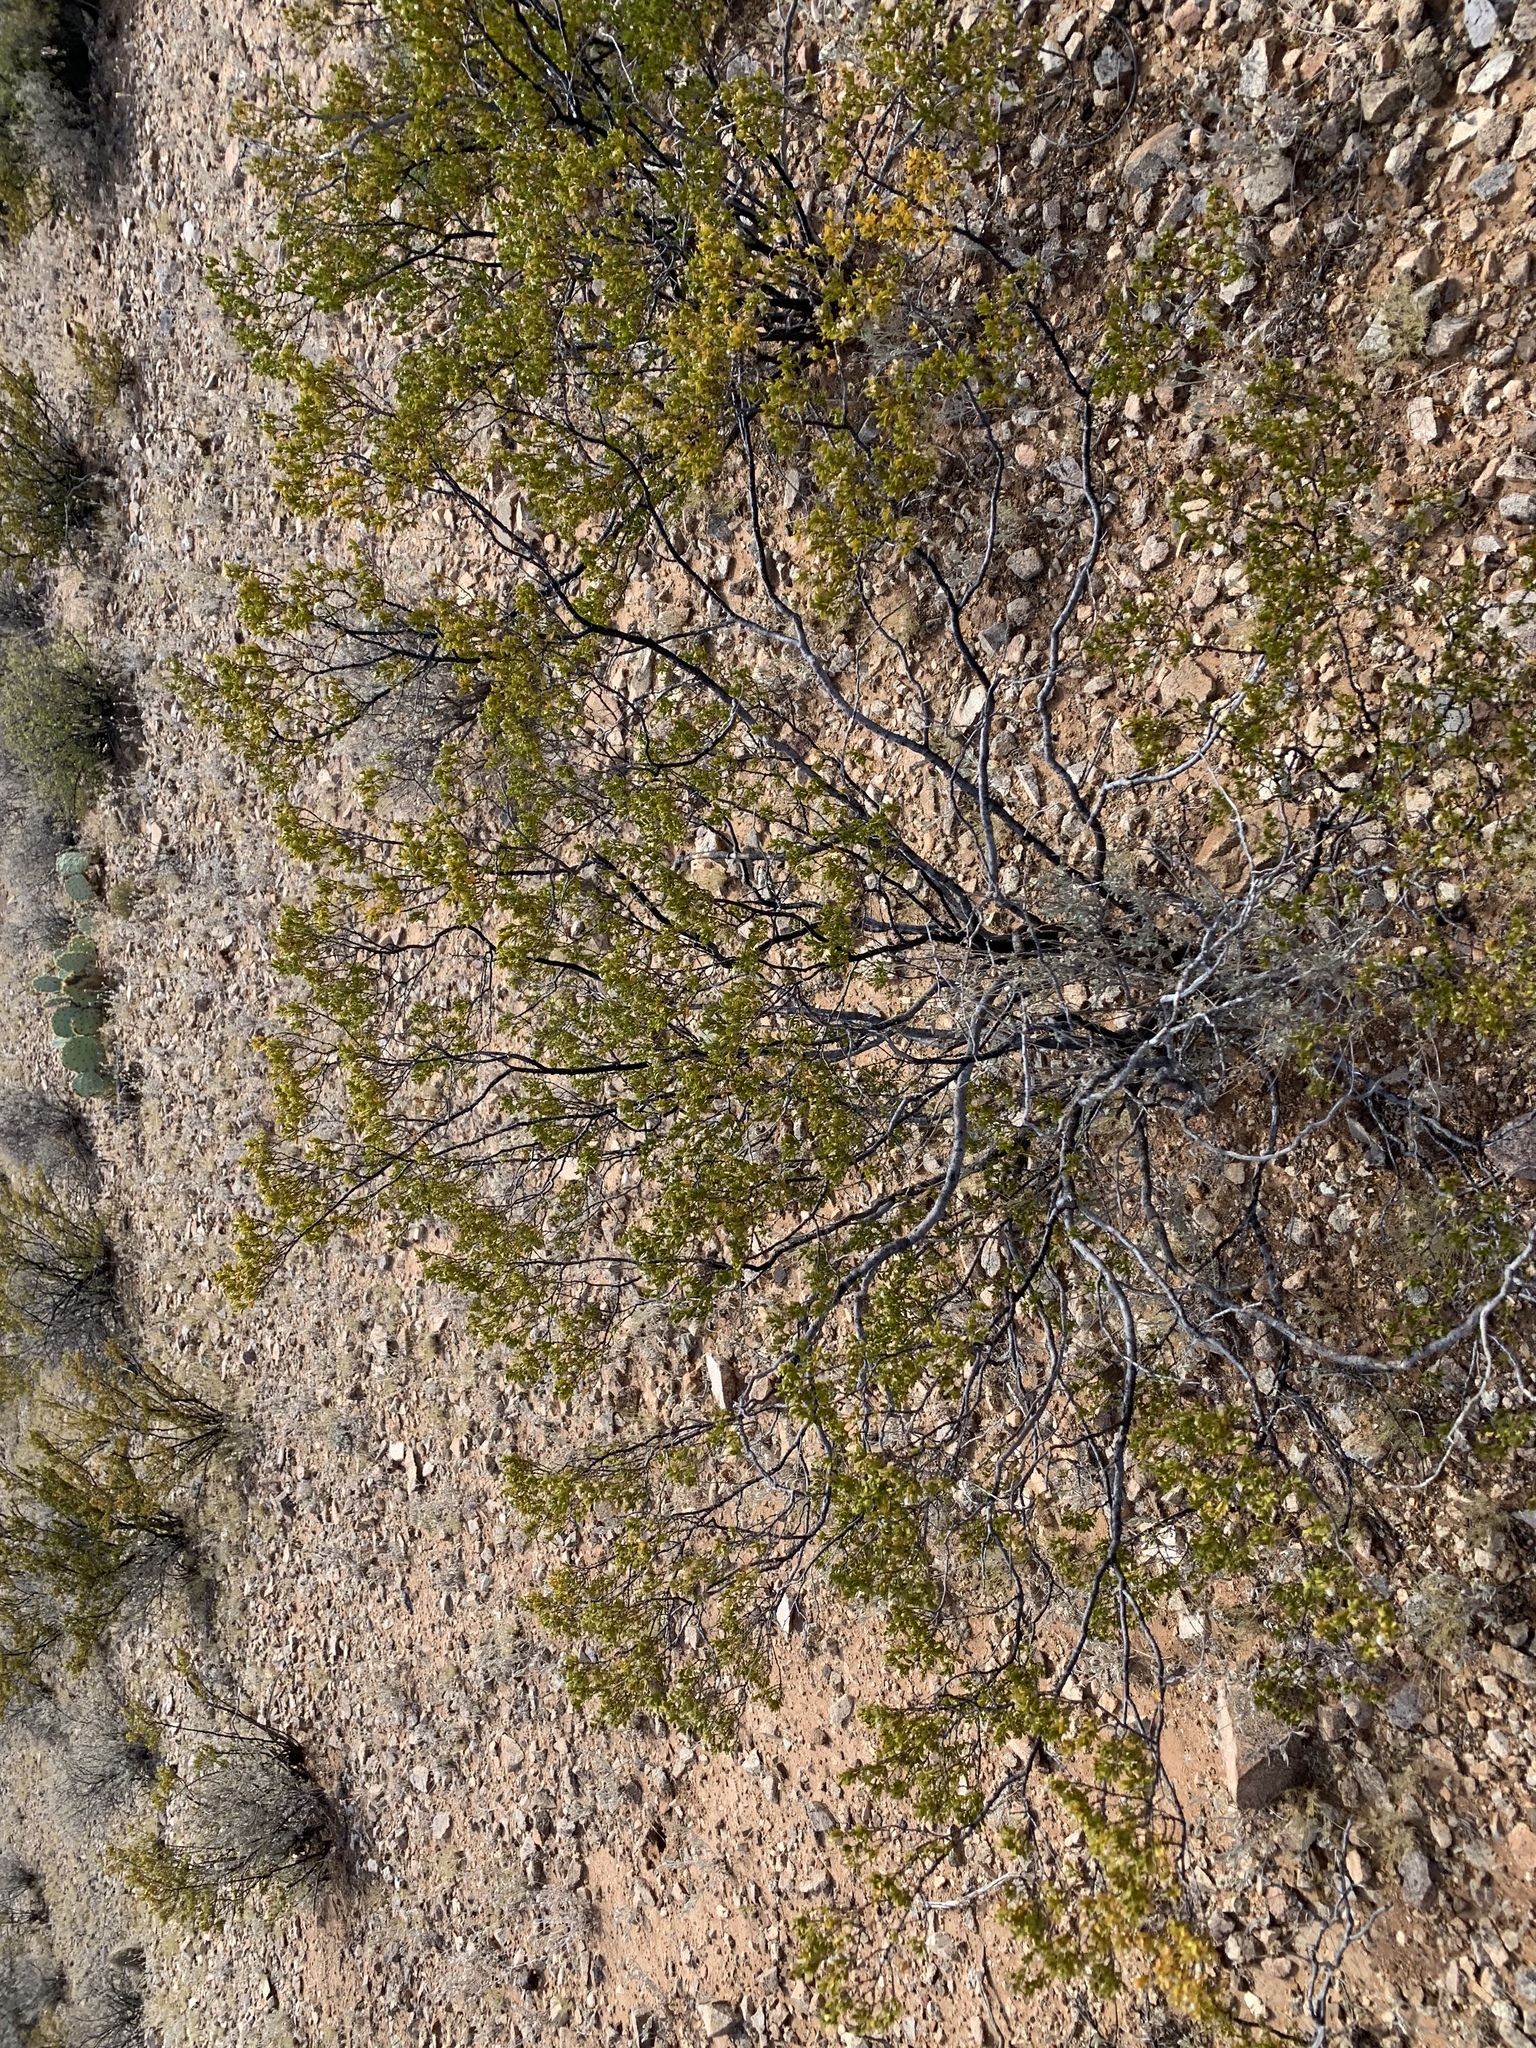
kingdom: Plantae
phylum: Tracheophyta
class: Magnoliopsida
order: Zygophyllales
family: Zygophyllaceae
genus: Larrea
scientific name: Larrea tridentata
